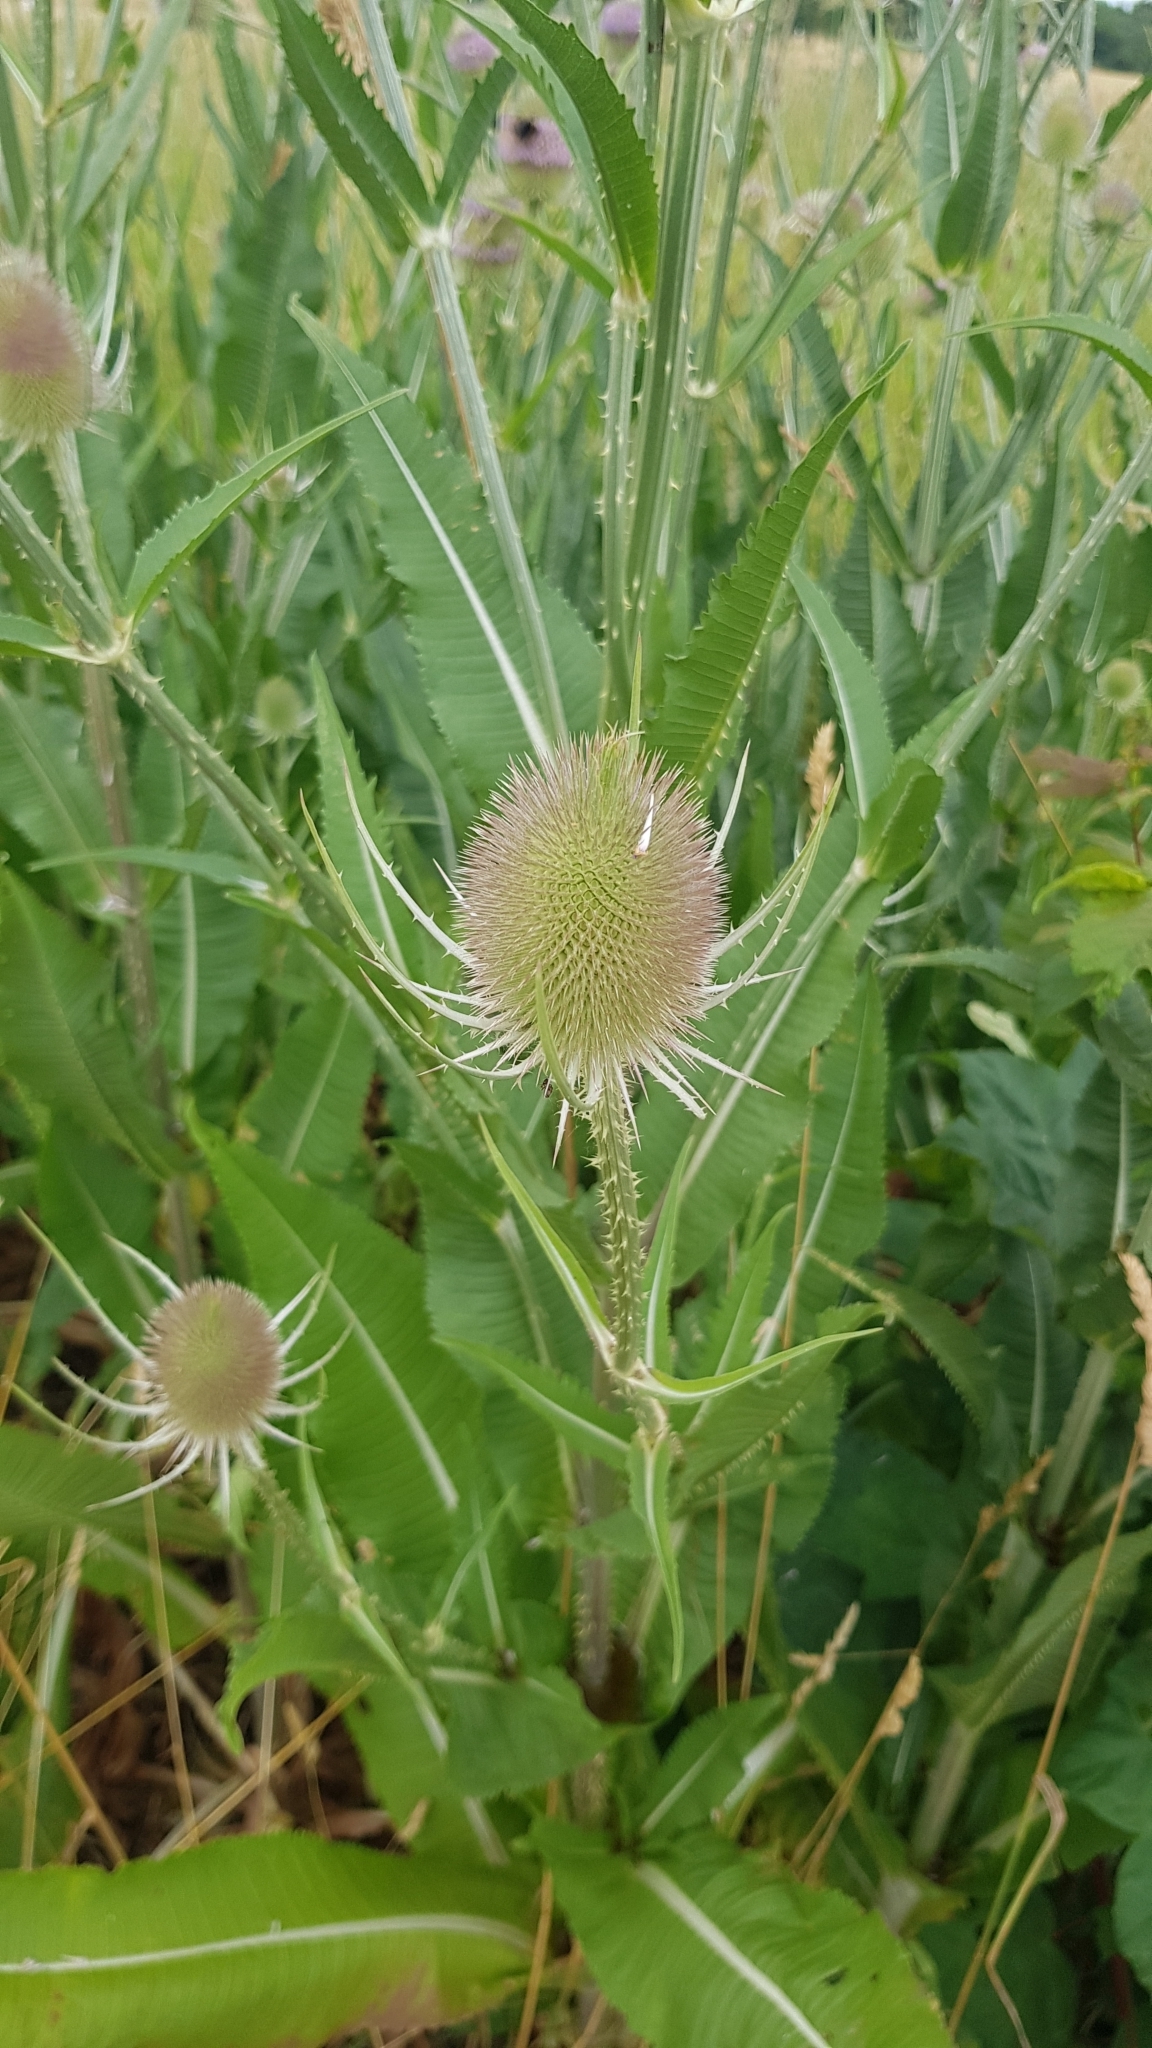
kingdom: Plantae
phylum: Tracheophyta
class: Magnoliopsida
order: Dipsacales
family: Caprifoliaceae
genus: Dipsacus
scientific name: Dipsacus fullonum
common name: Teasel
